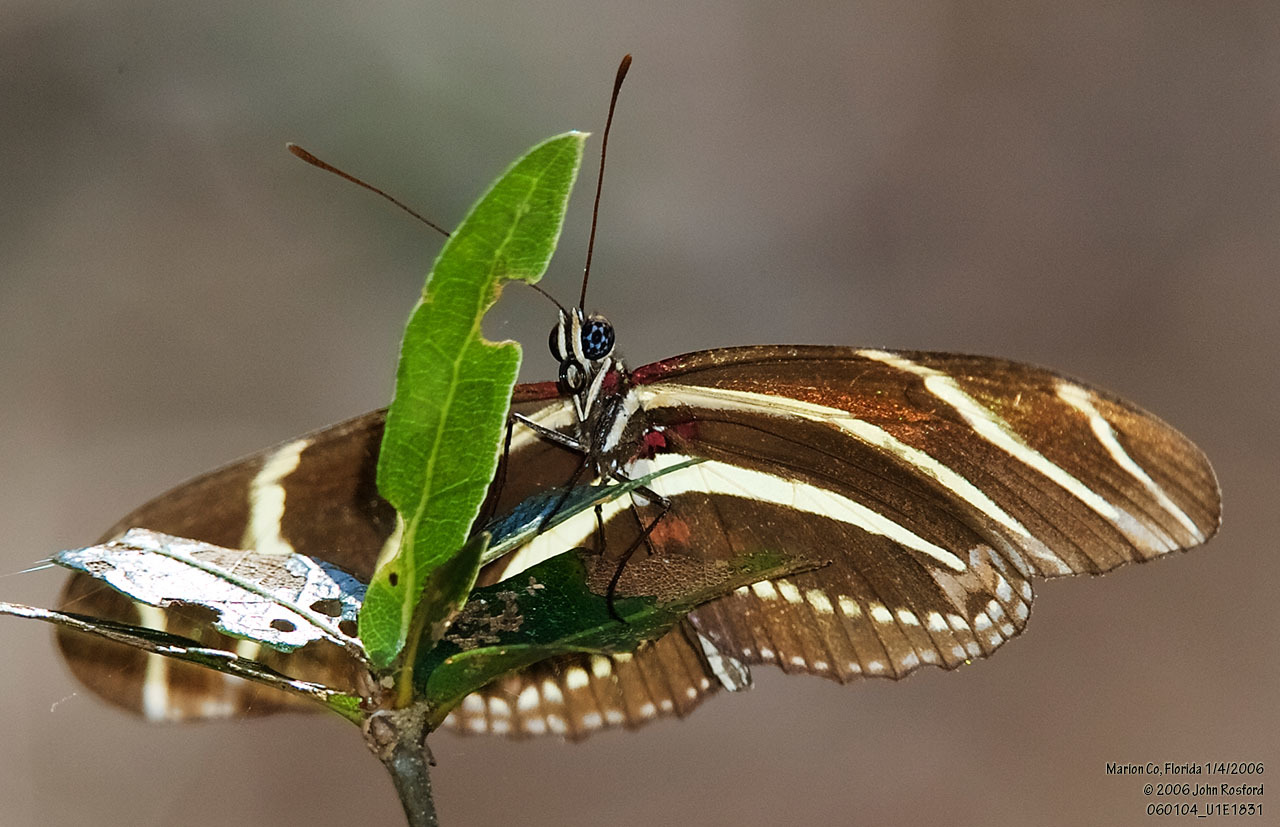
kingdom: Animalia
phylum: Arthropoda
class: Insecta
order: Lepidoptera
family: Nymphalidae
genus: Heliconius
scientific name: Heliconius charithonia
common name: Zebra long wing
